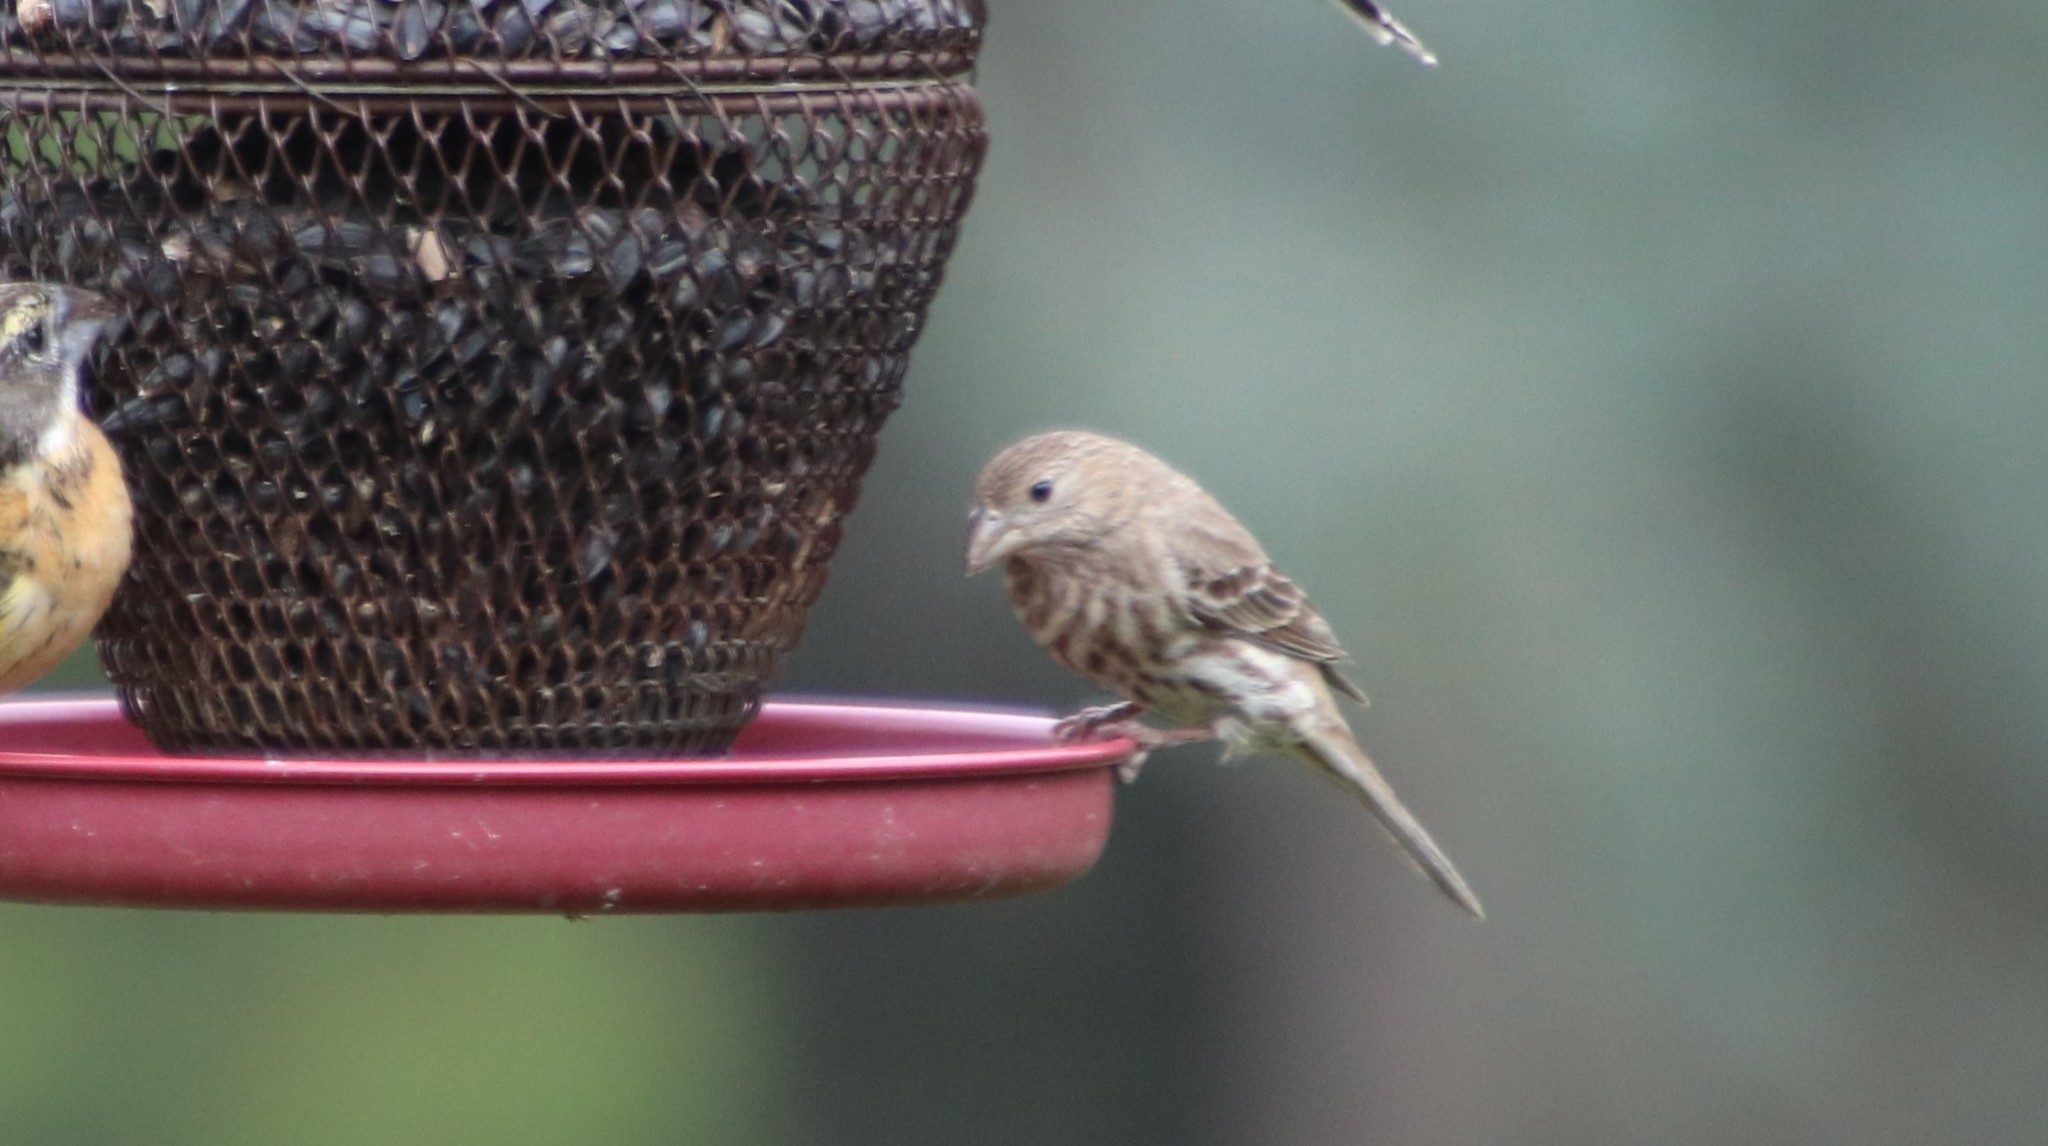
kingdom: Animalia
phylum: Chordata
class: Aves
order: Passeriformes
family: Fringillidae
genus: Haemorhous
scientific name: Haemorhous mexicanus
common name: House finch
